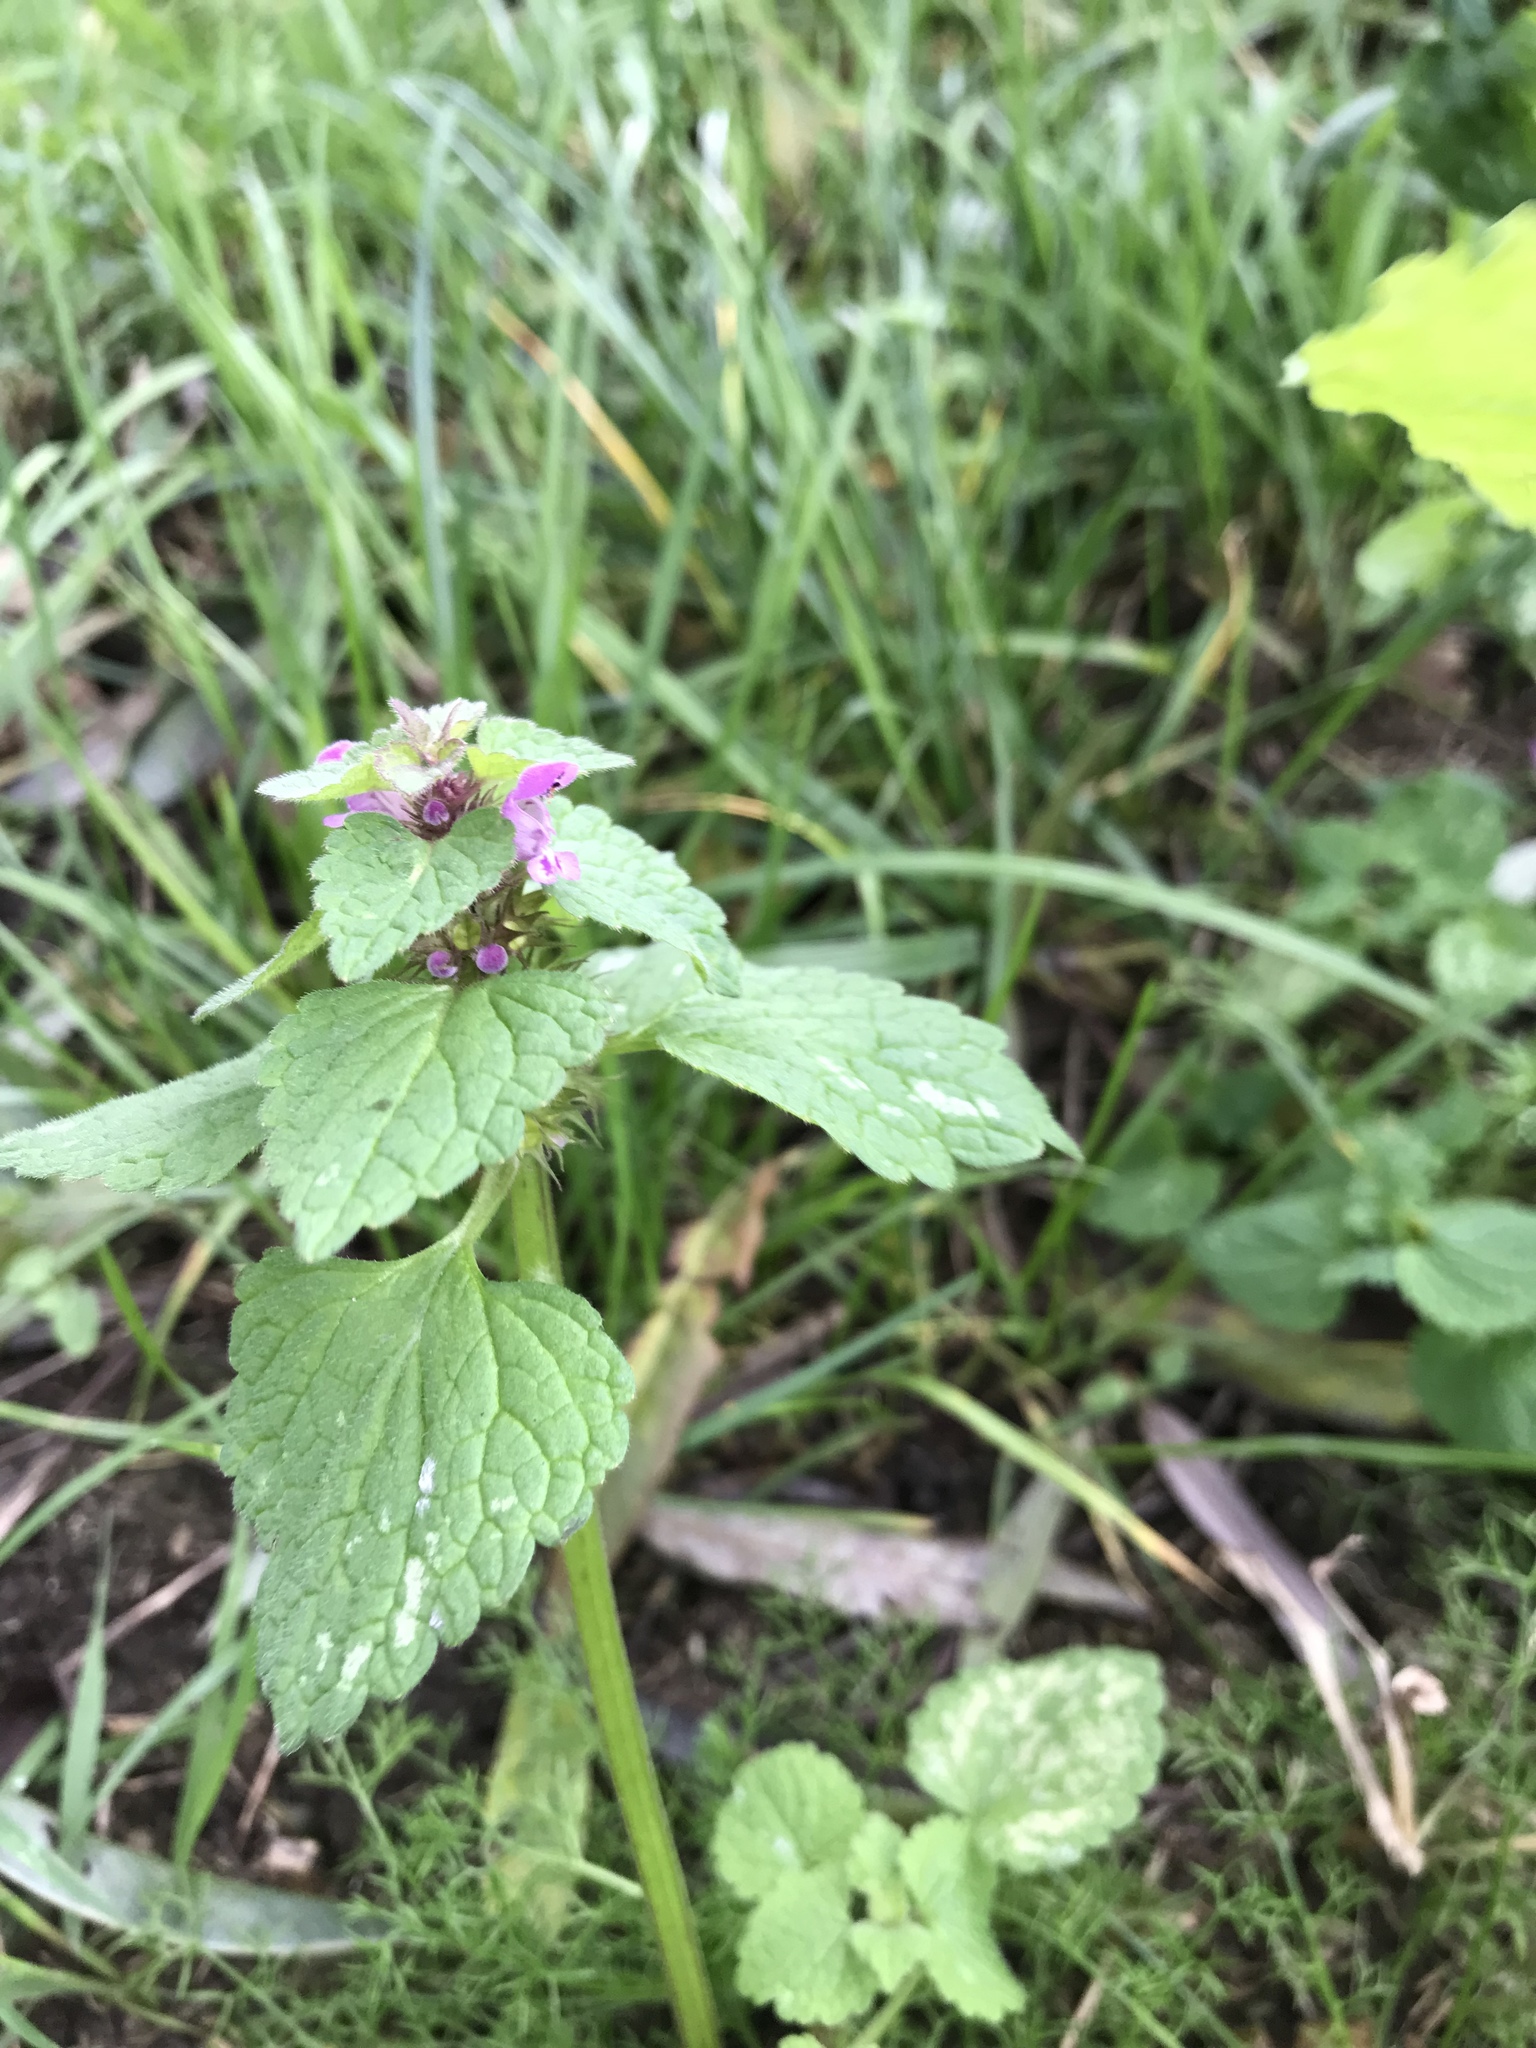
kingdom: Plantae
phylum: Tracheophyta
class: Magnoliopsida
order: Lamiales
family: Lamiaceae
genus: Lamium
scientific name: Lamium purpureum
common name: Red dead-nettle
